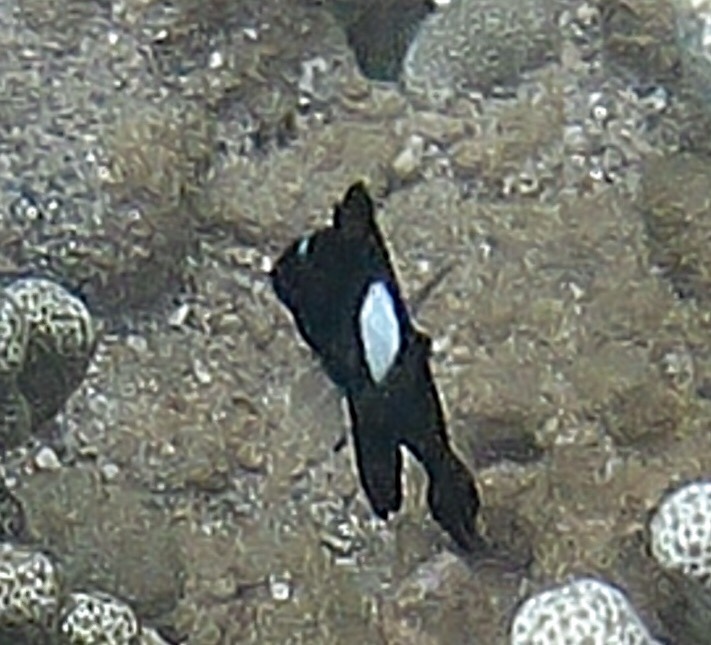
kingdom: Animalia
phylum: Chordata
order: Perciformes
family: Pomacentridae
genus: Dascyllus
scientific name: Dascyllus albisella
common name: Hawaiian dascyllus
